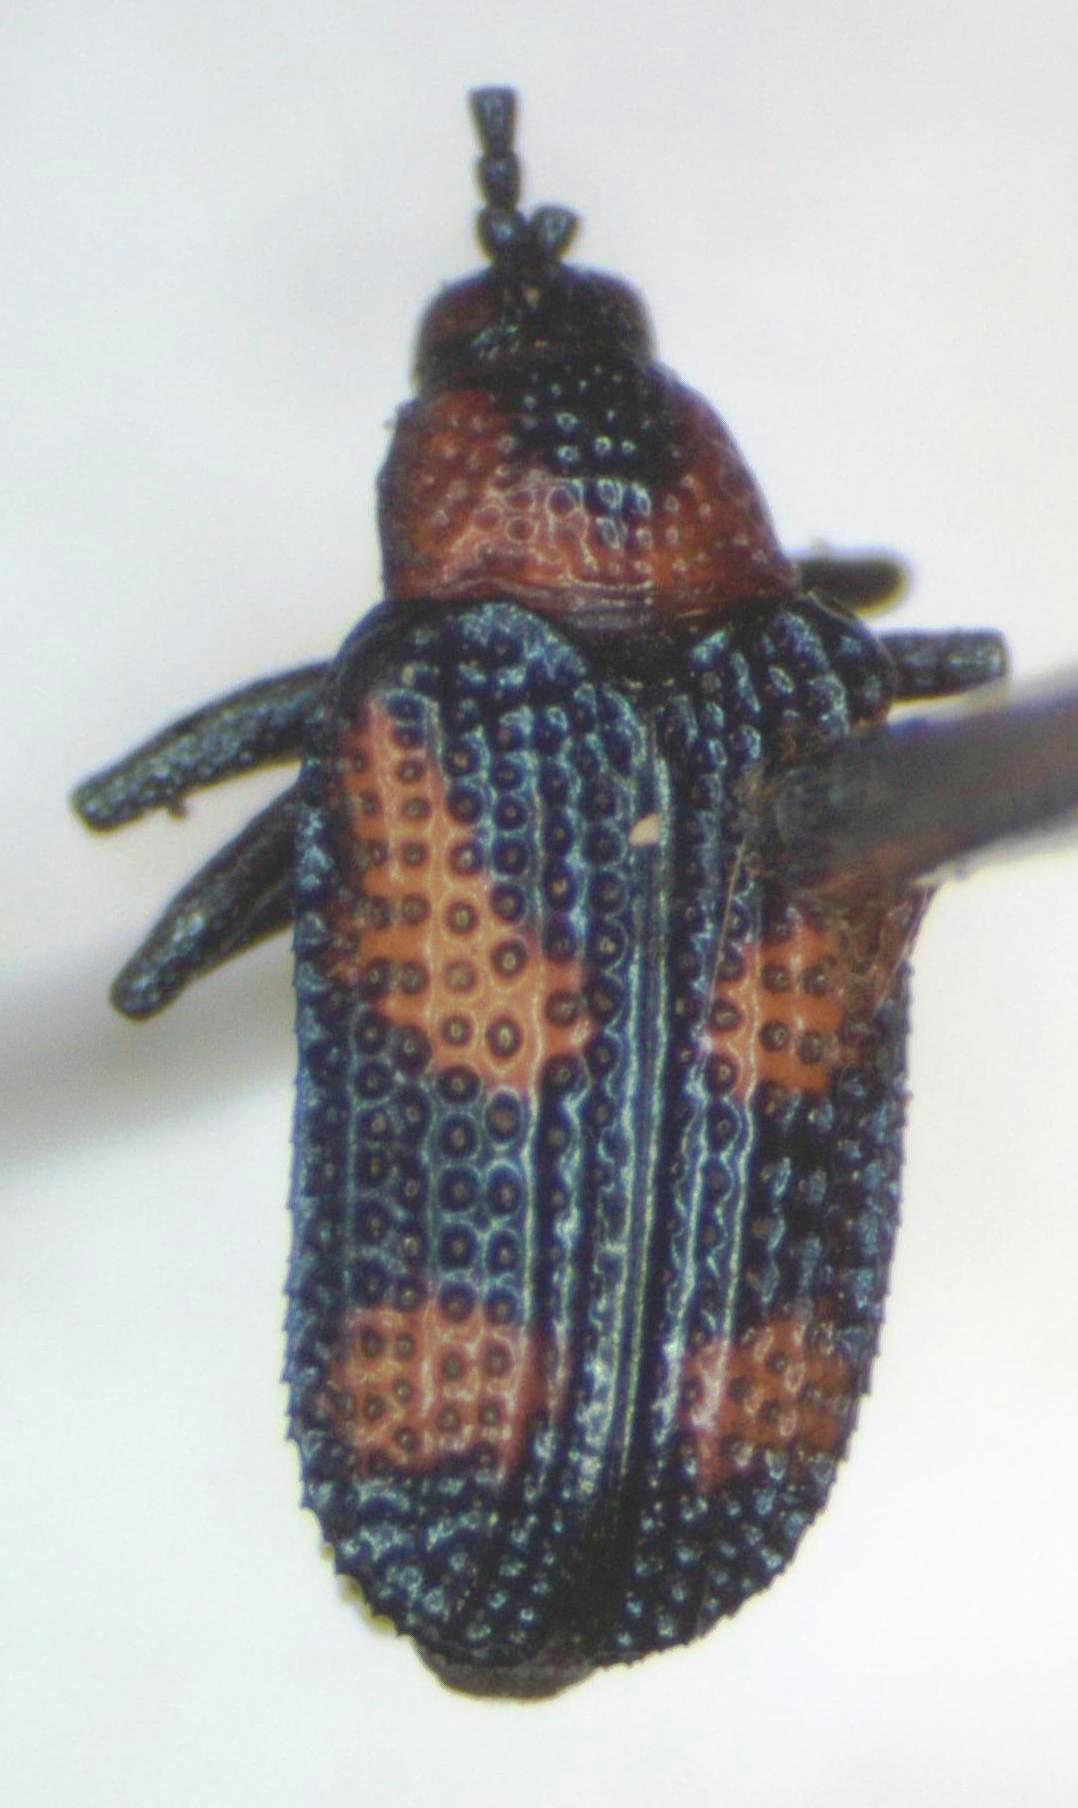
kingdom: Animalia
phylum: Arthropoda
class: Insecta
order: Coleoptera
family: Chrysomelidae
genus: Microrhopala
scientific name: Microrhopala perforata
